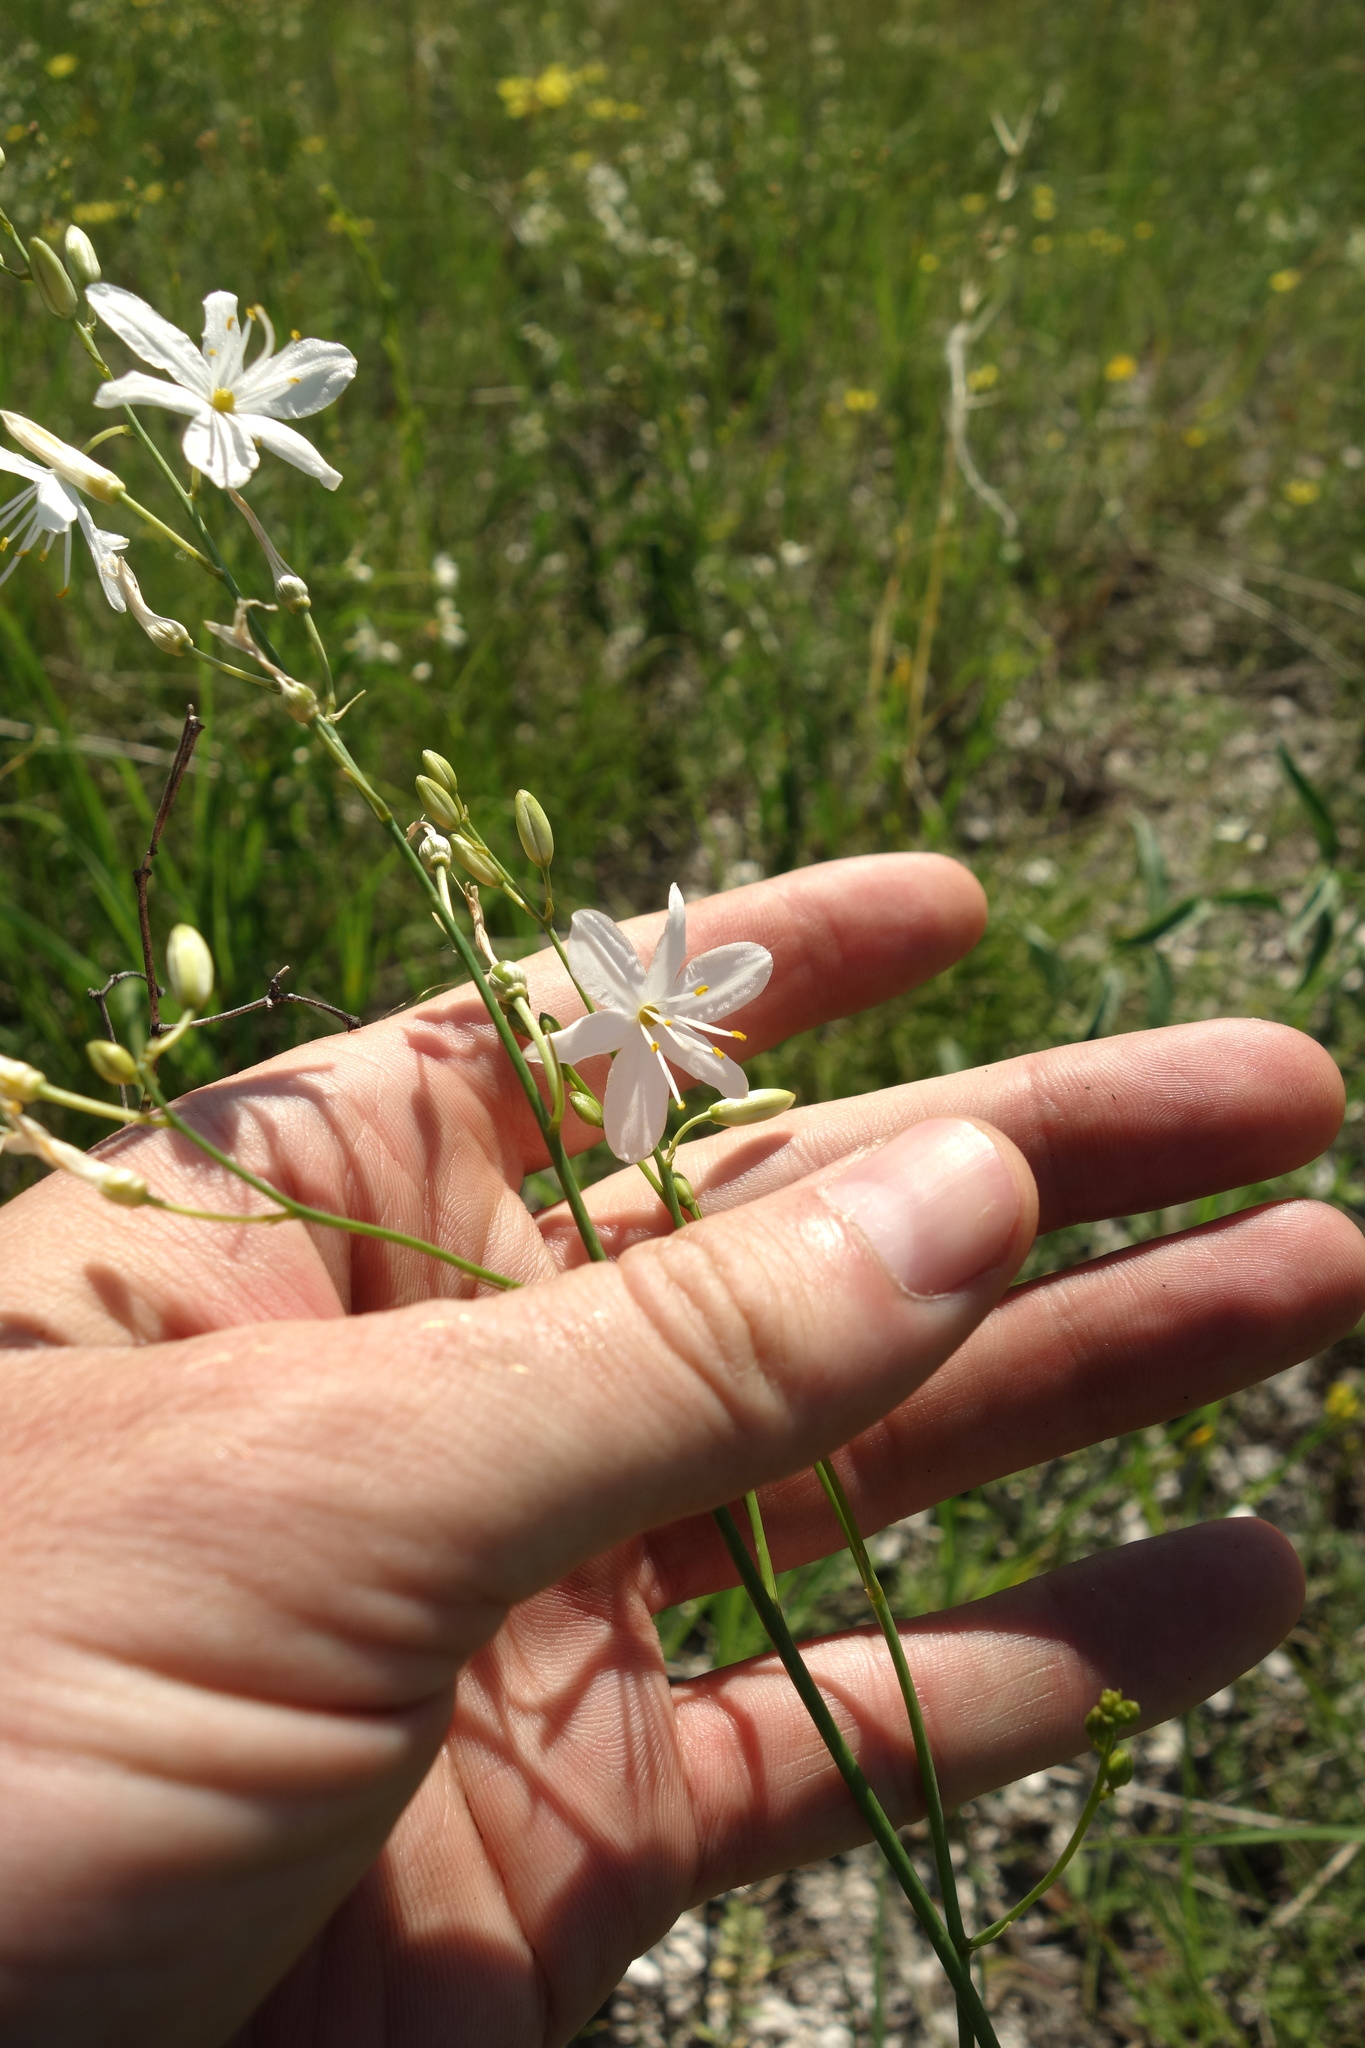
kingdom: Plantae
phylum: Tracheophyta
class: Liliopsida
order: Asparagales
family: Asparagaceae
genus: Anthericum
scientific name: Anthericum ramosum
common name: Branched st. bernard's-lily
